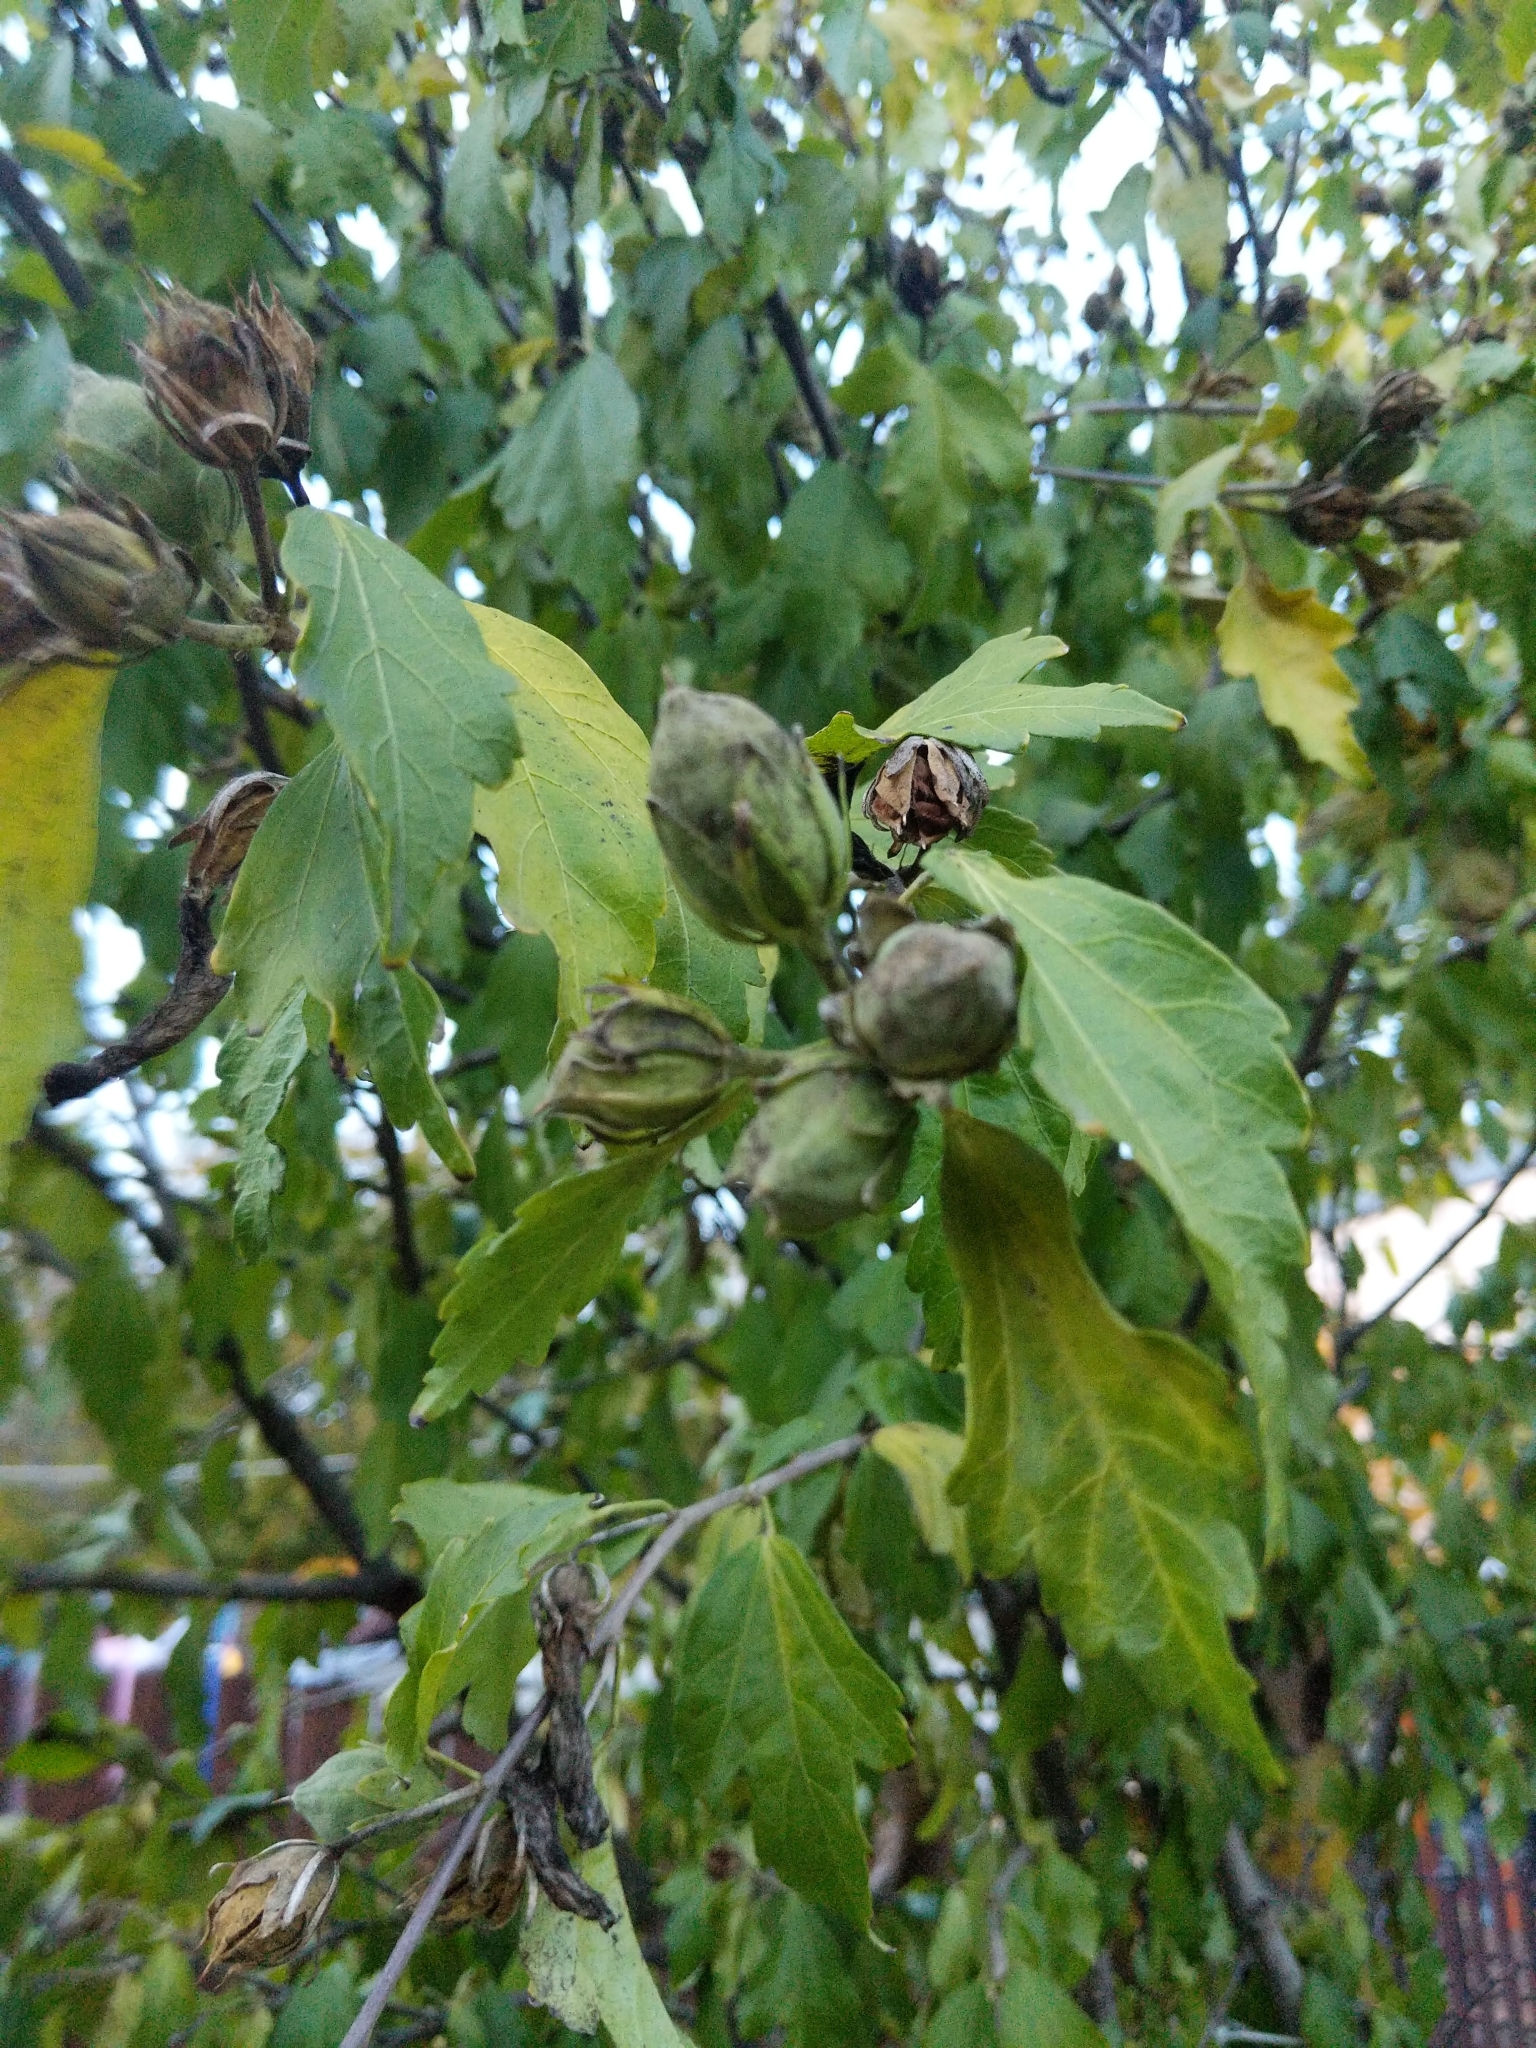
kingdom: Plantae
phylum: Tracheophyta
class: Magnoliopsida
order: Malvales
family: Malvaceae
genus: Hibiscus
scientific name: Hibiscus syriacus
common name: Syrian ketmia
